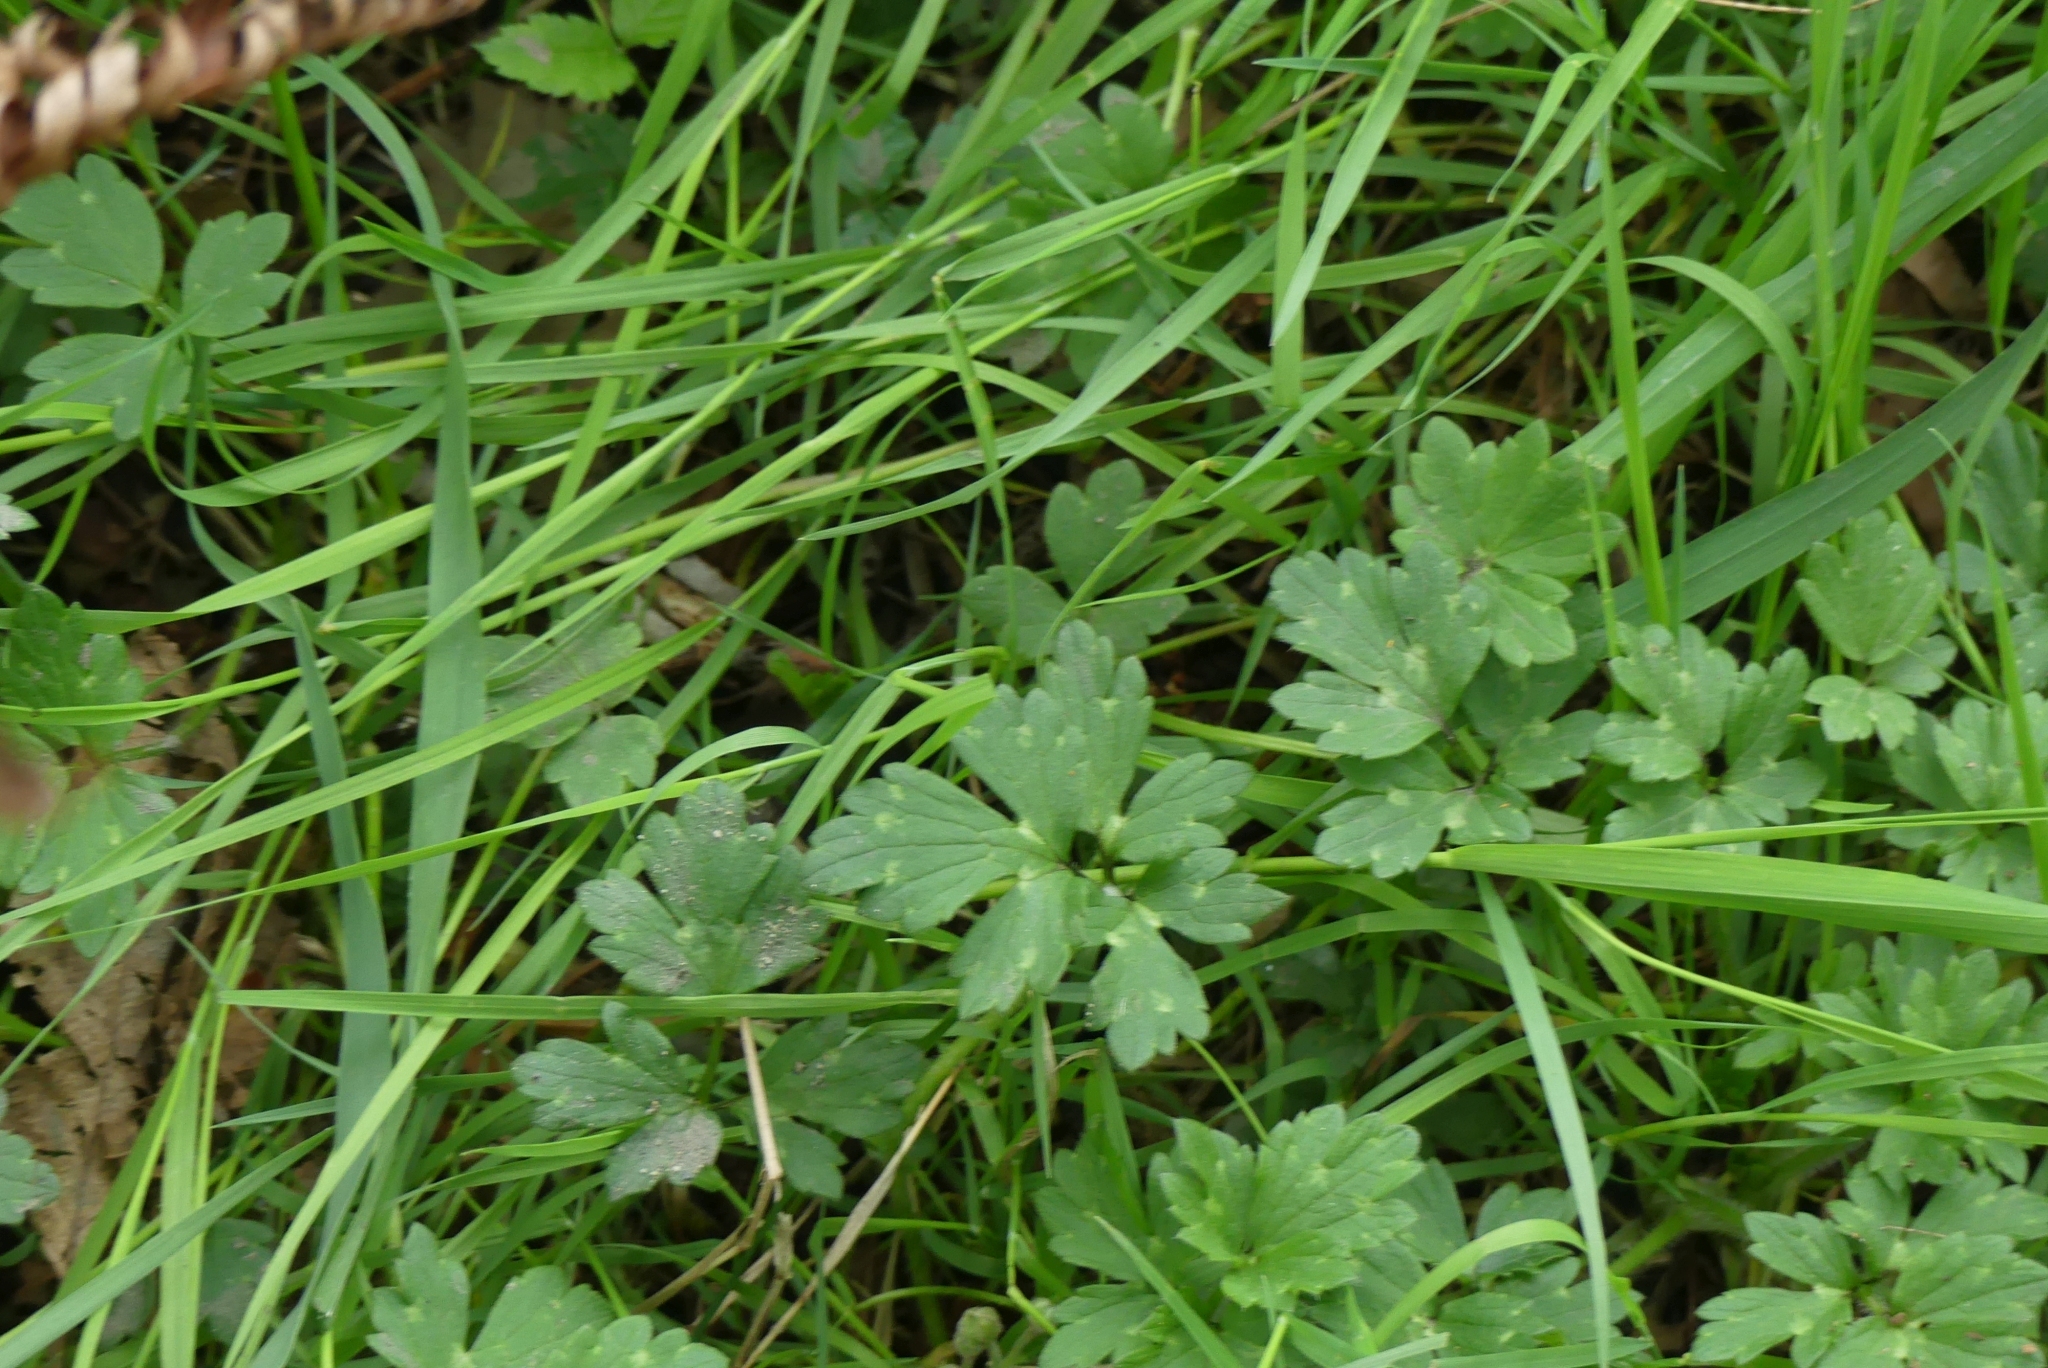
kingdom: Plantae
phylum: Tracheophyta
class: Magnoliopsida
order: Ranunculales
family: Ranunculaceae
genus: Ranunculus
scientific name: Ranunculus repens
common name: Creeping buttercup
